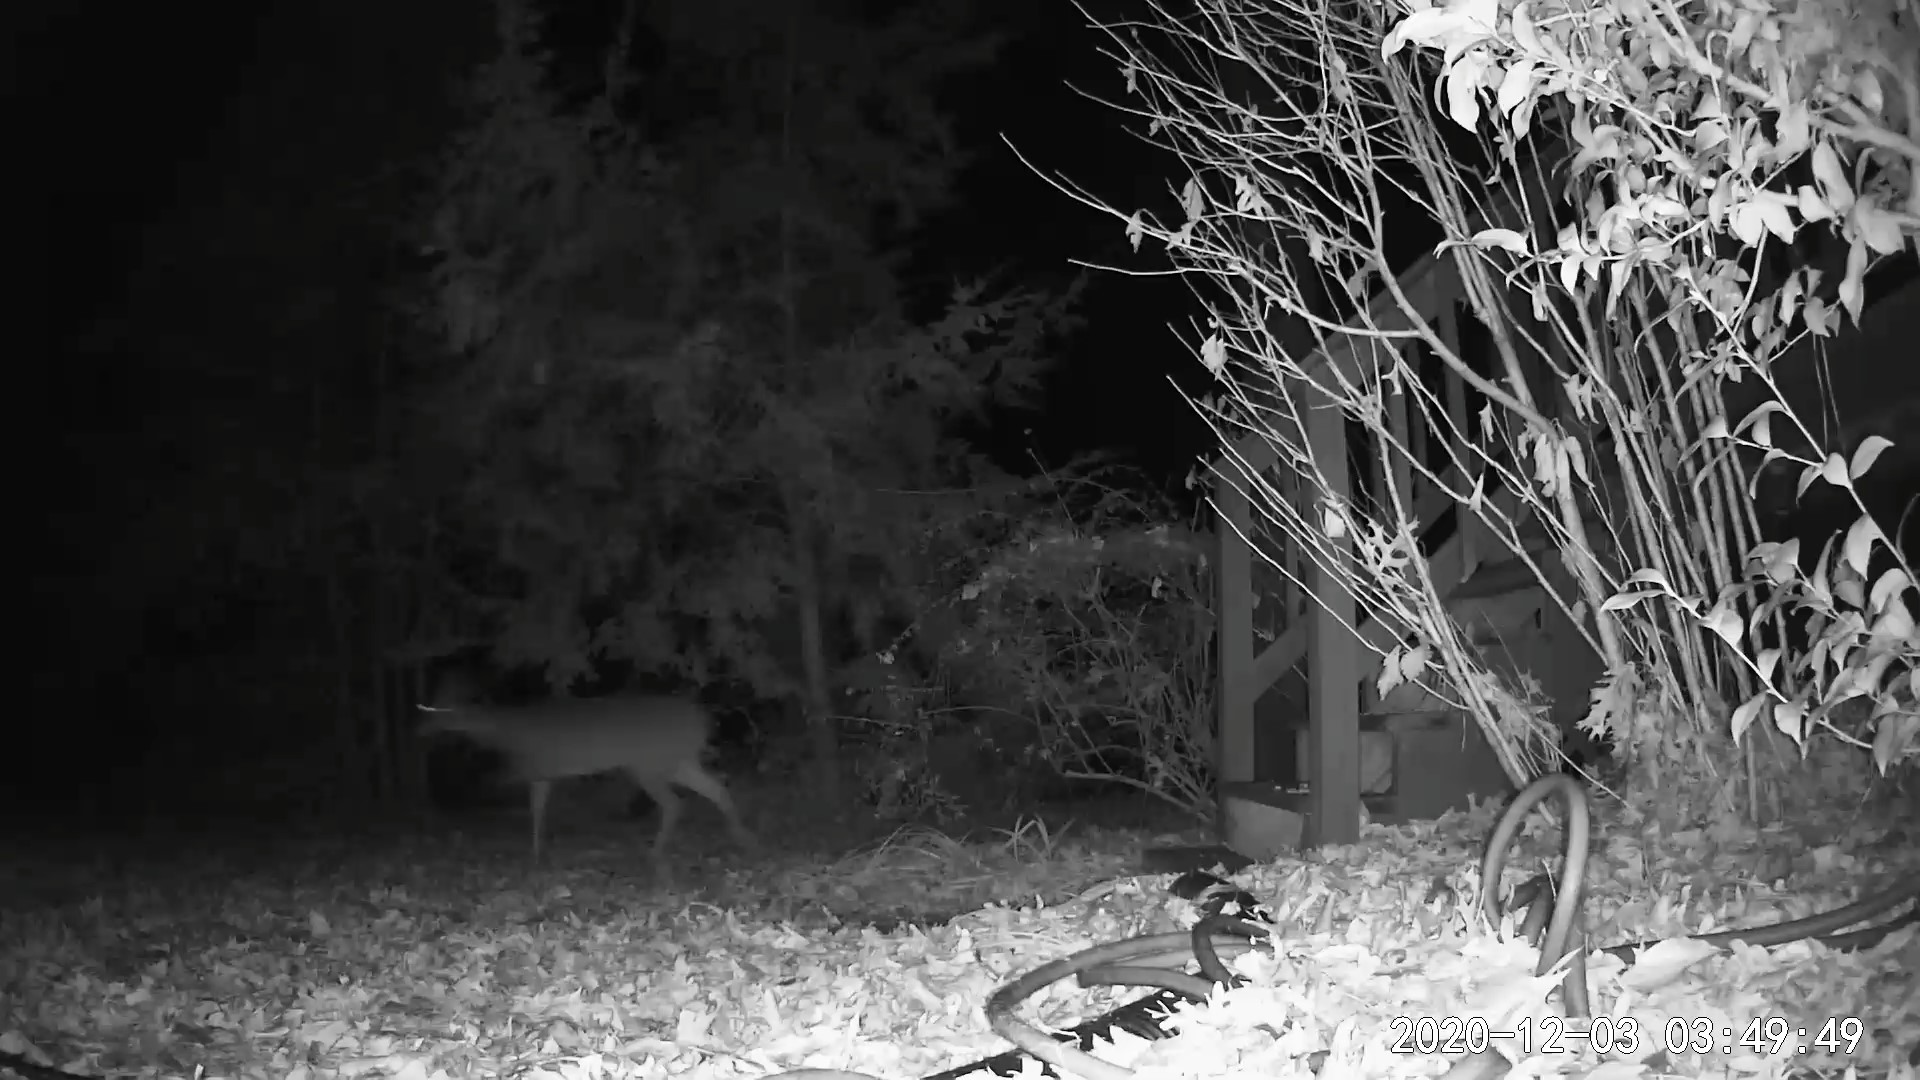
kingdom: Animalia
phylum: Chordata
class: Mammalia
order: Artiodactyla
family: Cervidae
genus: Odocoileus
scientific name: Odocoileus virginianus
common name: White-tailed deer
